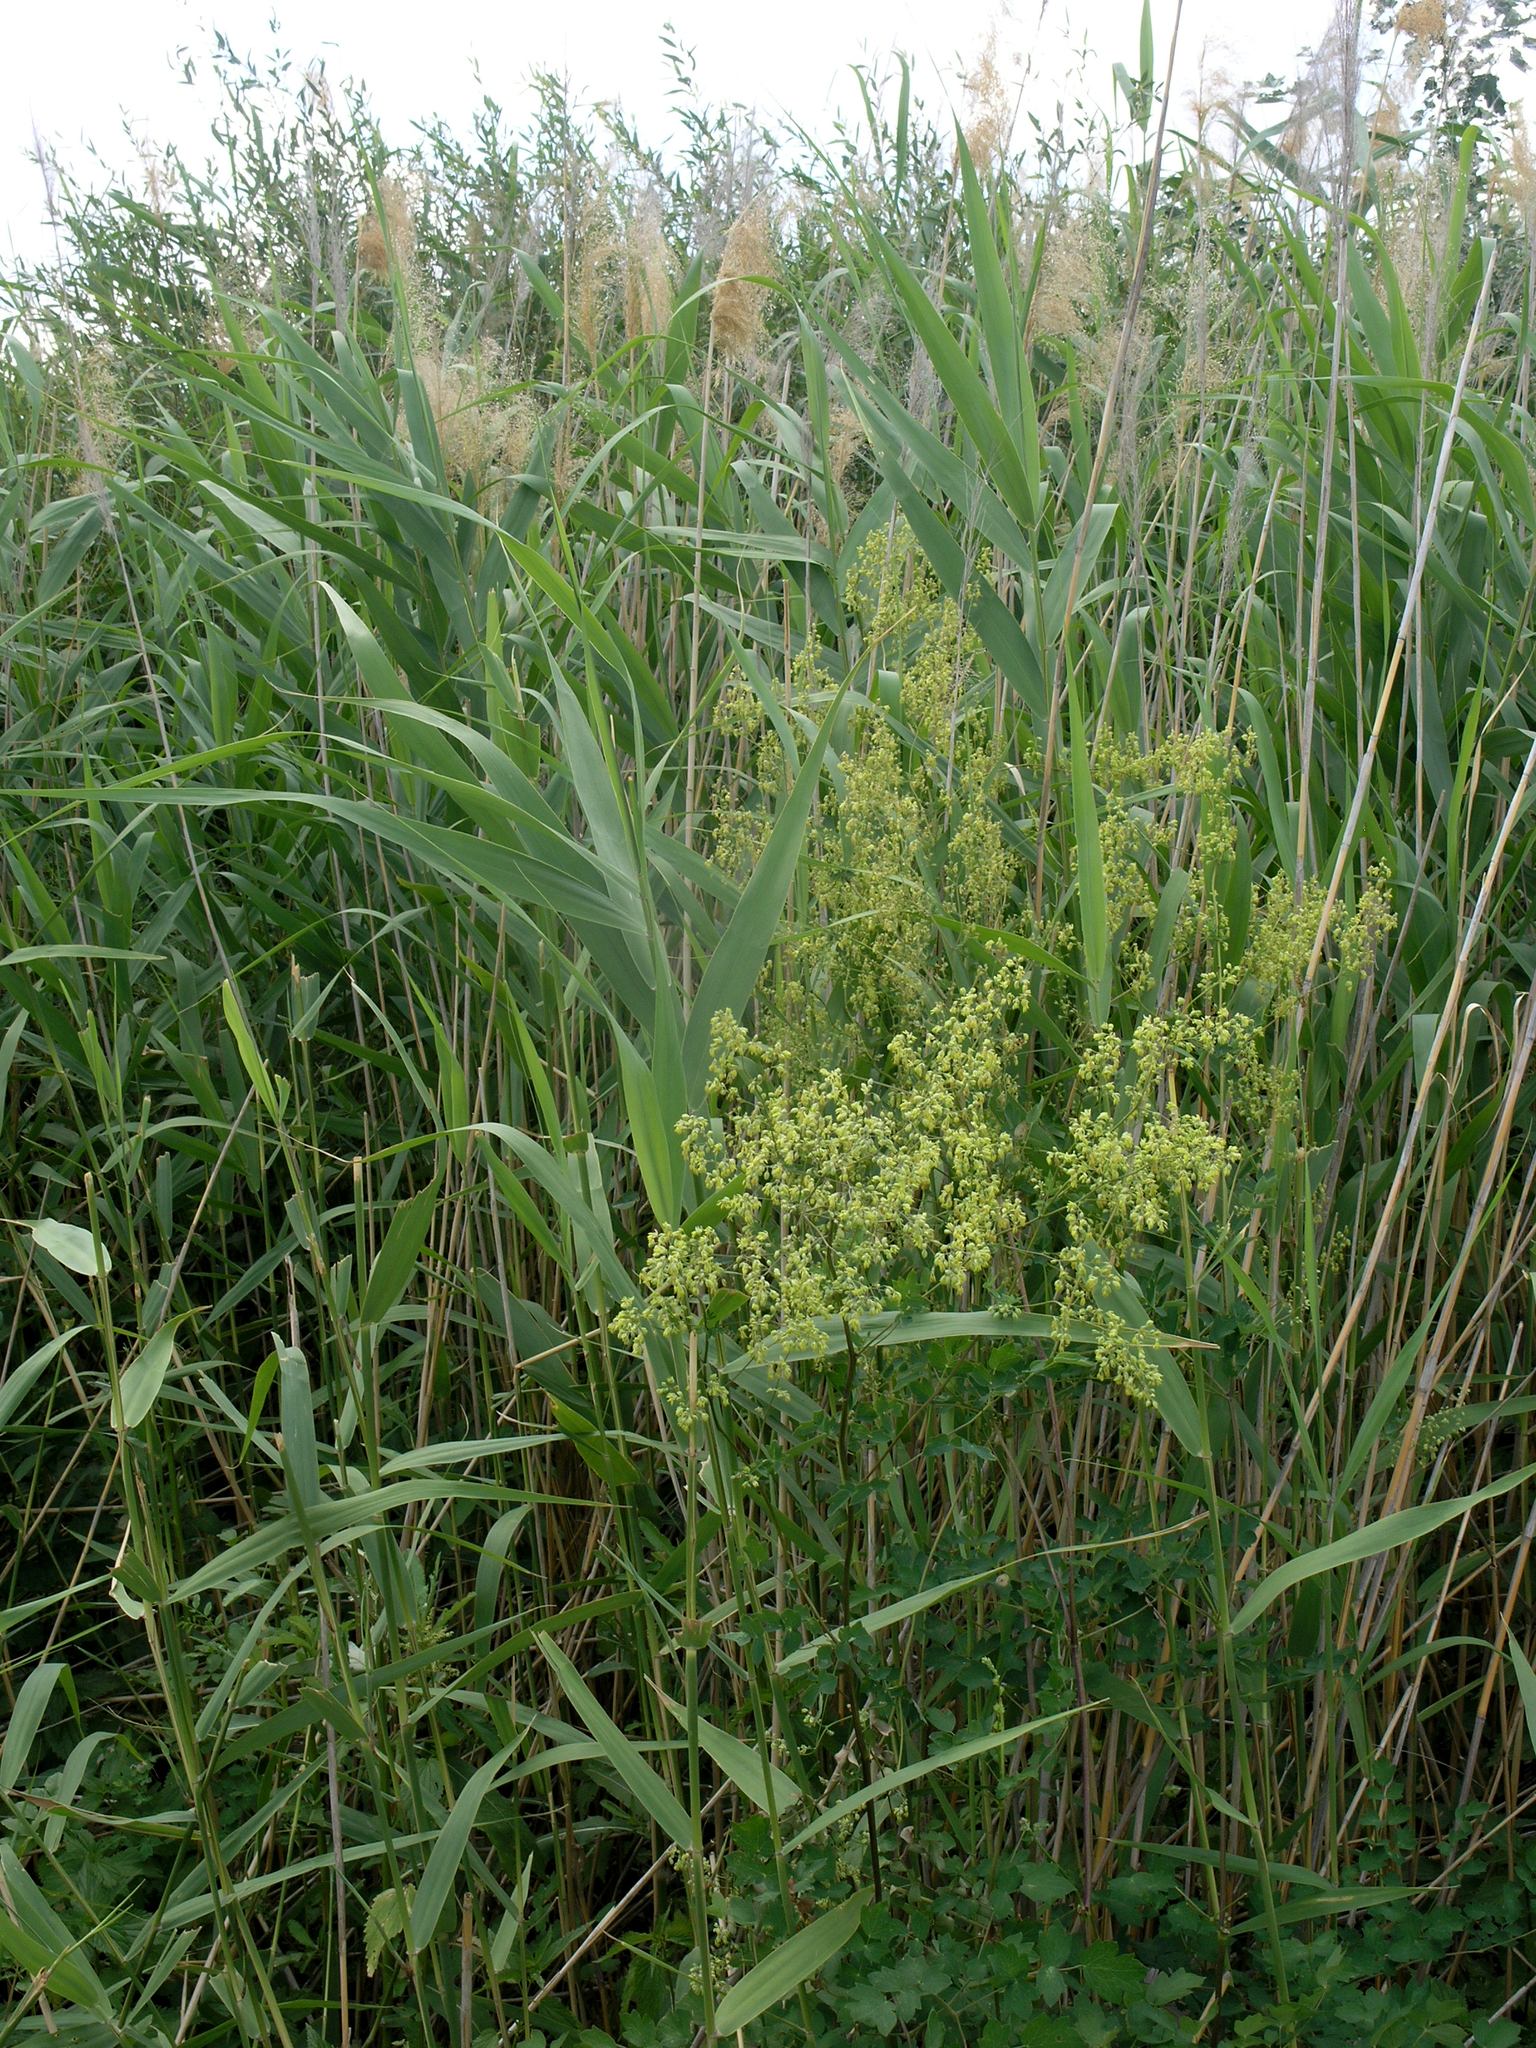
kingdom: Plantae
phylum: Tracheophyta
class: Liliopsida
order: Poales
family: Poaceae
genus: Phragmites
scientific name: Phragmites australis
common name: Common reed
